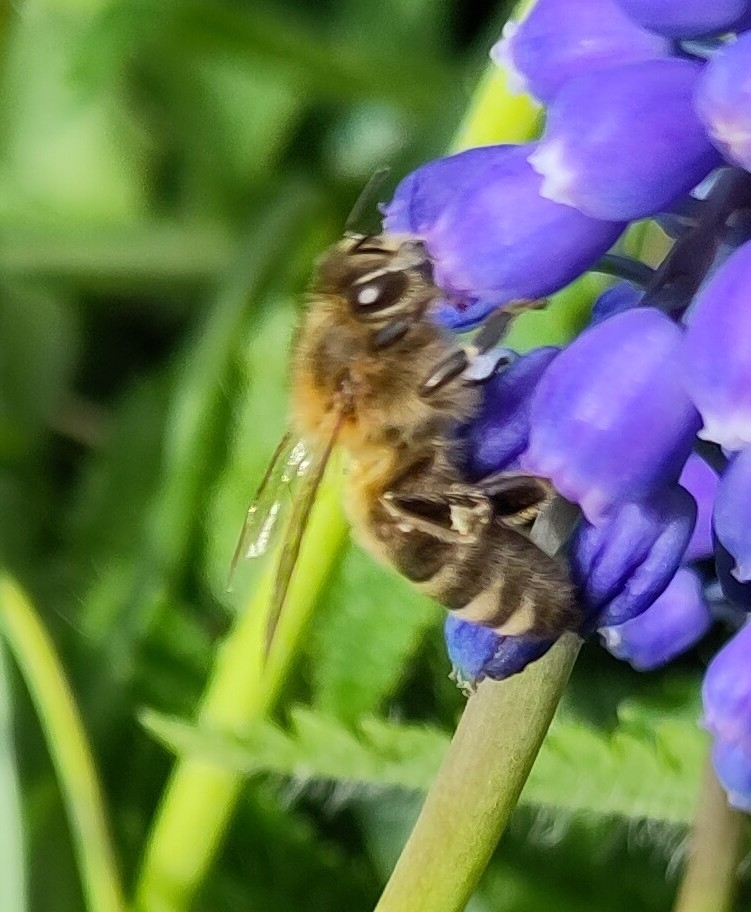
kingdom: Animalia
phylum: Arthropoda
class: Insecta
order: Hymenoptera
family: Apidae
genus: Apis
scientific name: Apis mellifera
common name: Honey bee
